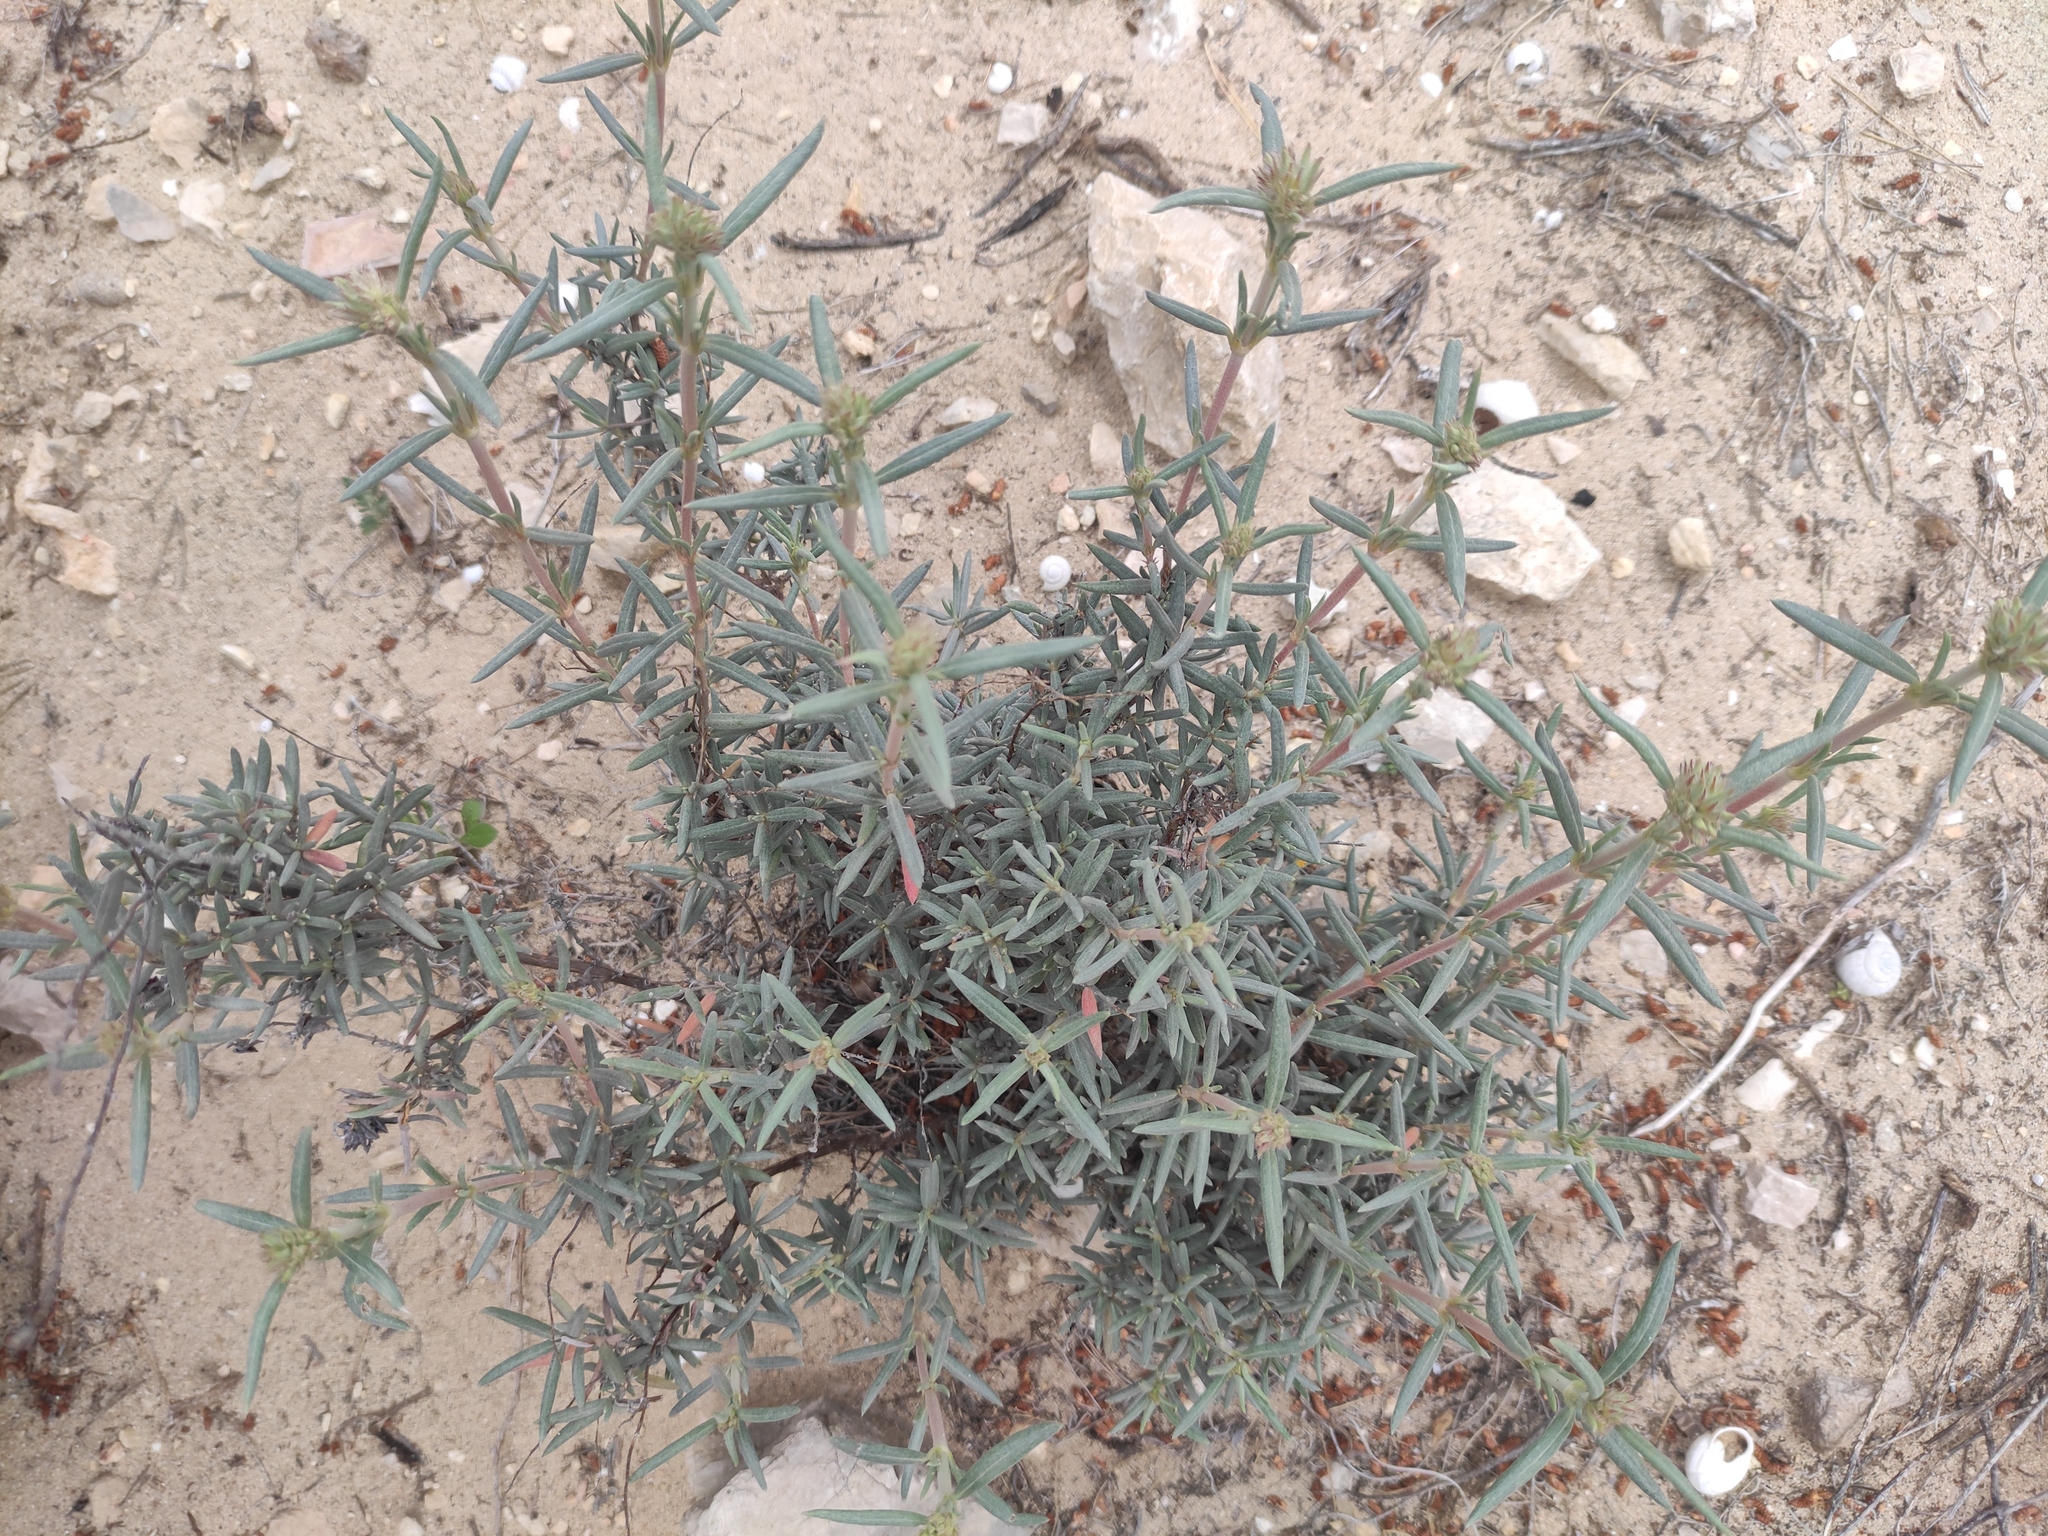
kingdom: Plantae
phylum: Tracheophyta
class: Magnoliopsida
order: Malvales
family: Cistaceae
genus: Helianthemum
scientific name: Helianthemum syriacum
